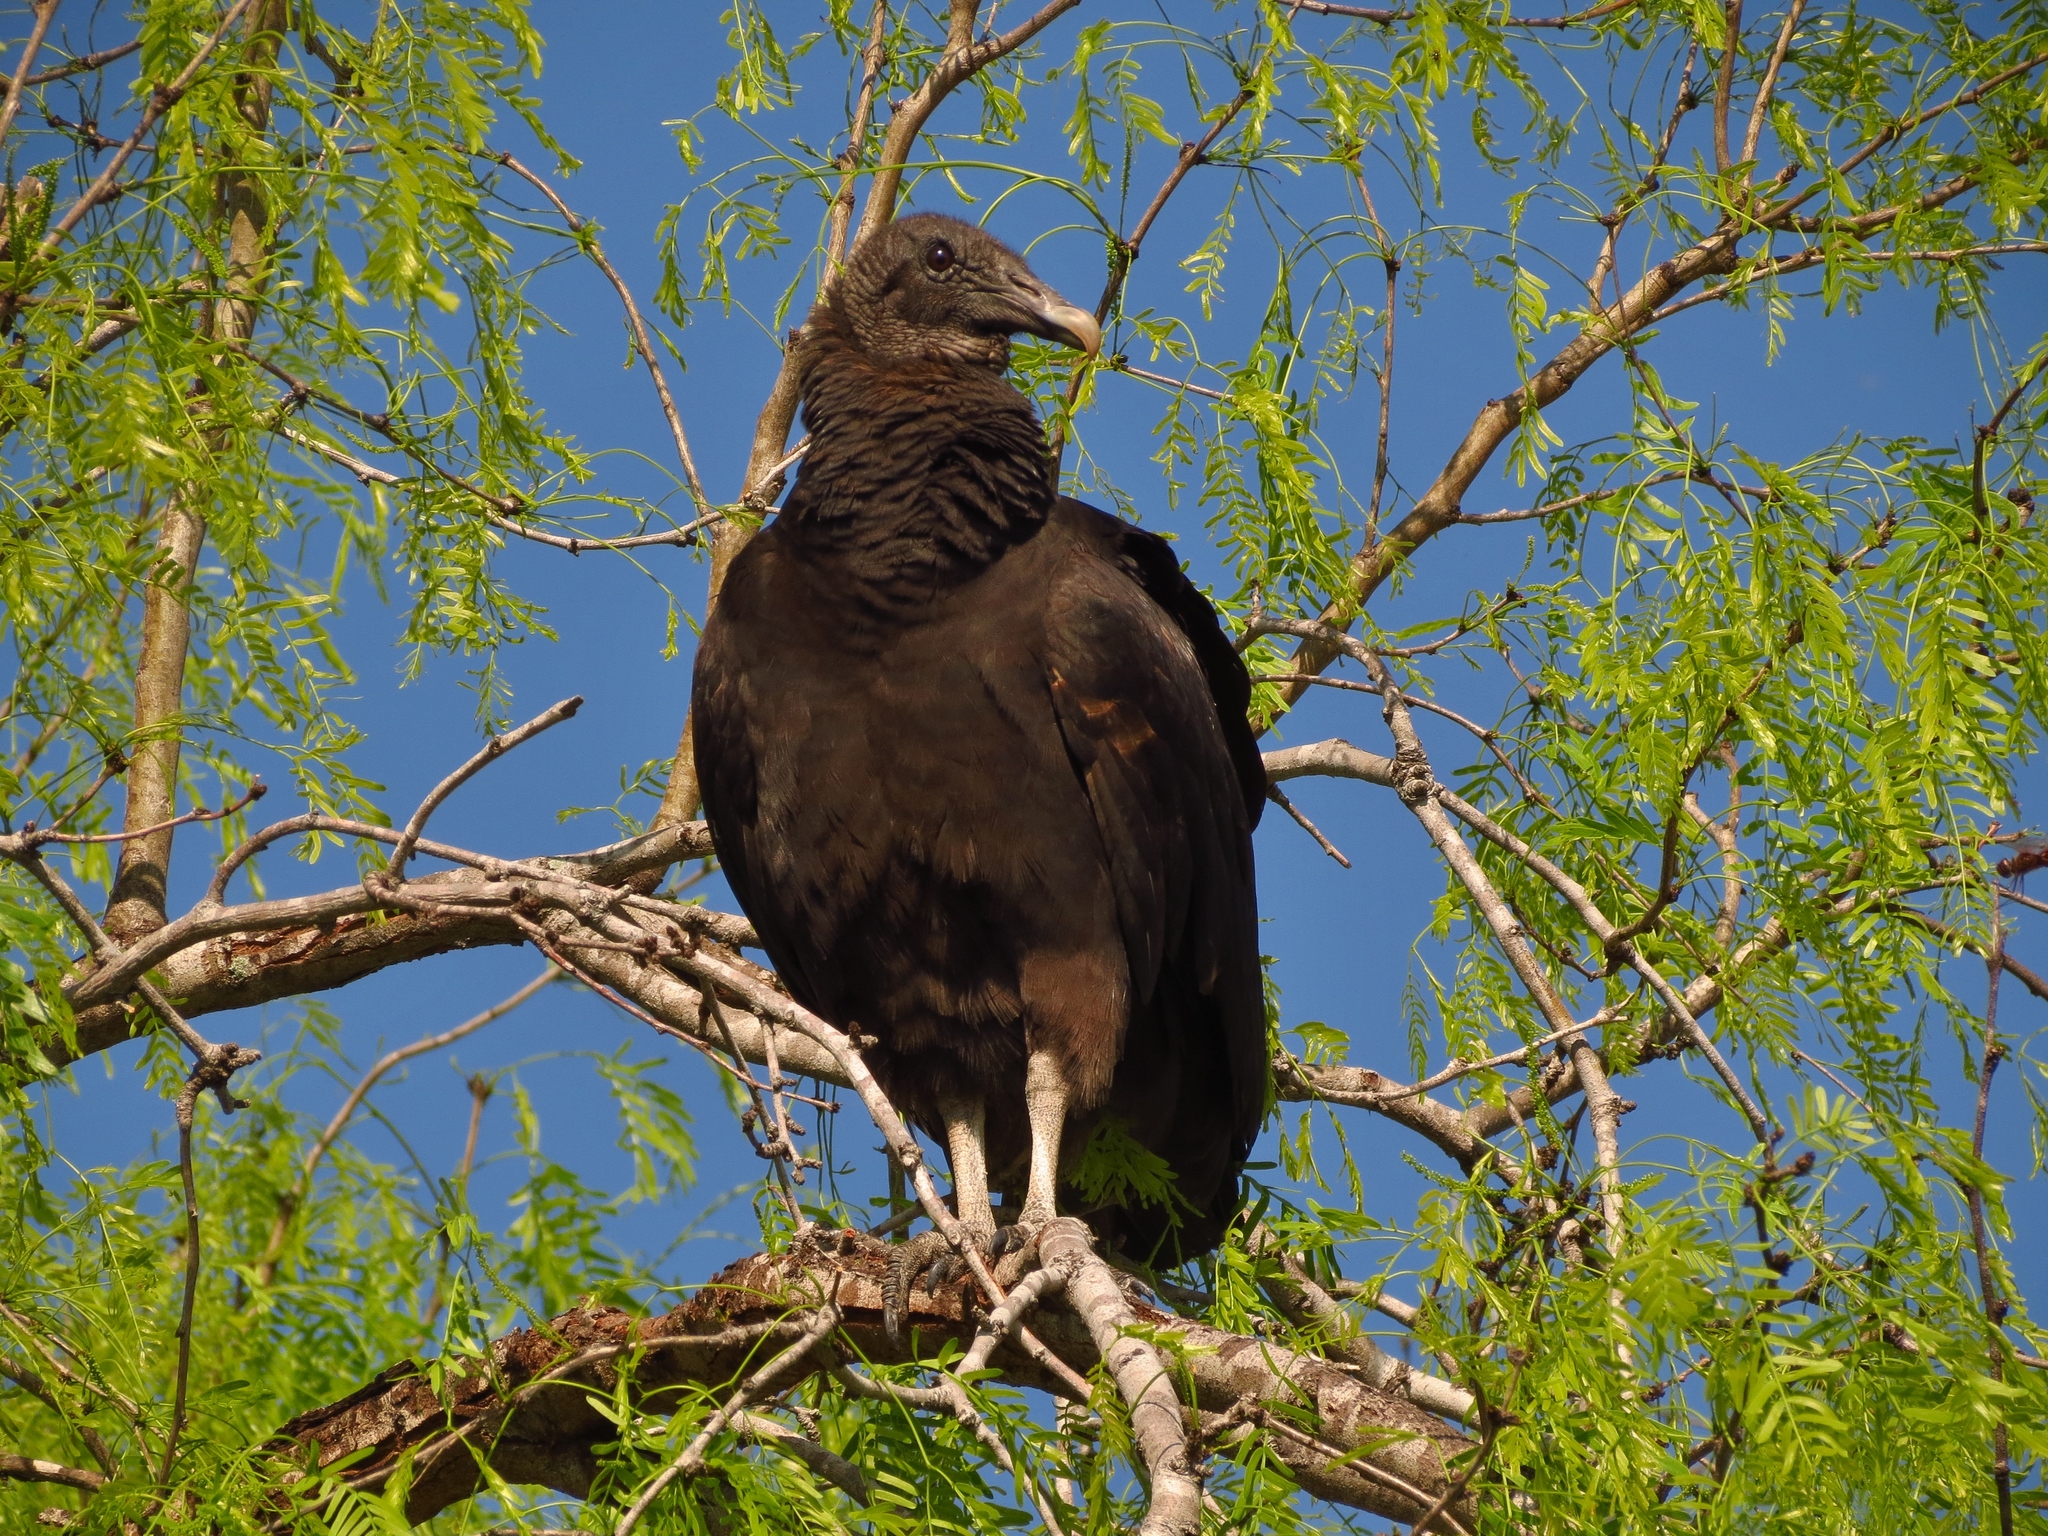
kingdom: Animalia
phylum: Chordata
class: Aves
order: Accipitriformes
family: Cathartidae
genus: Coragyps
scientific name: Coragyps atratus
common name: Black vulture
